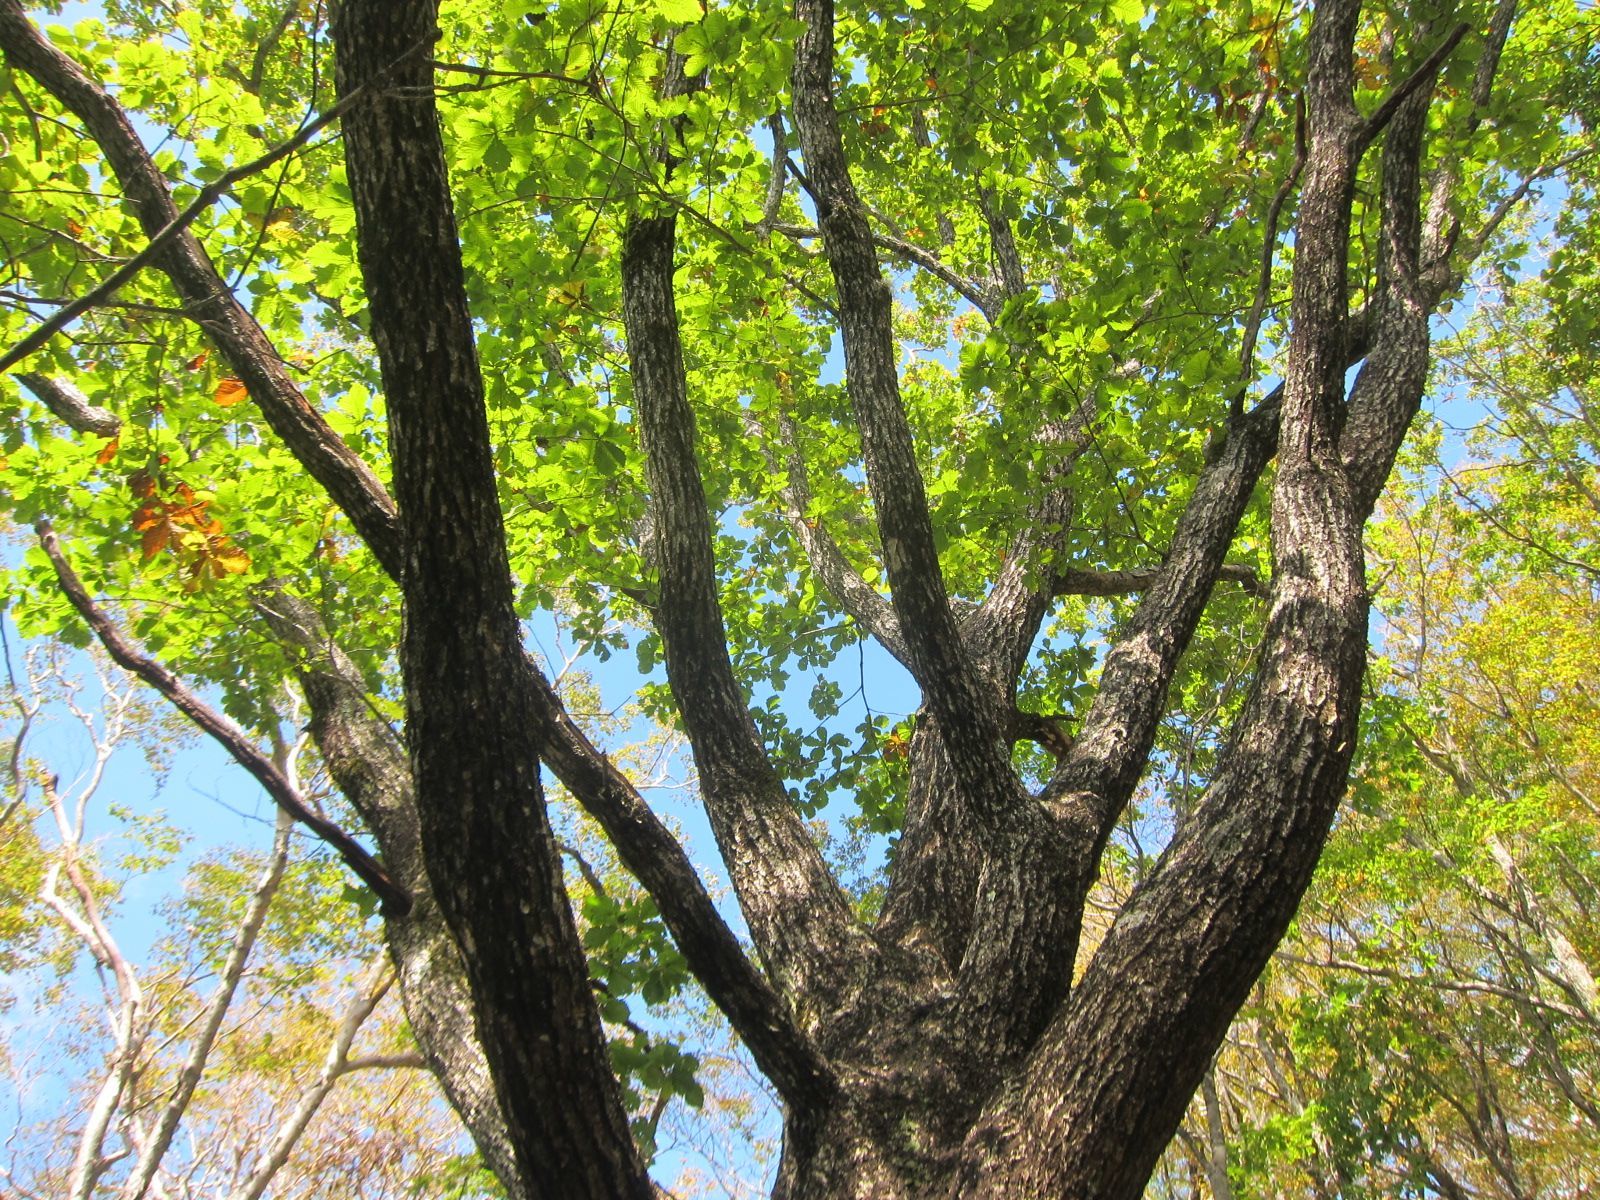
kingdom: Plantae
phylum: Tracheophyta
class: Magnoliopsida
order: Fagales
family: Fagaceae
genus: Quercus
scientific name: Quercus crispula
